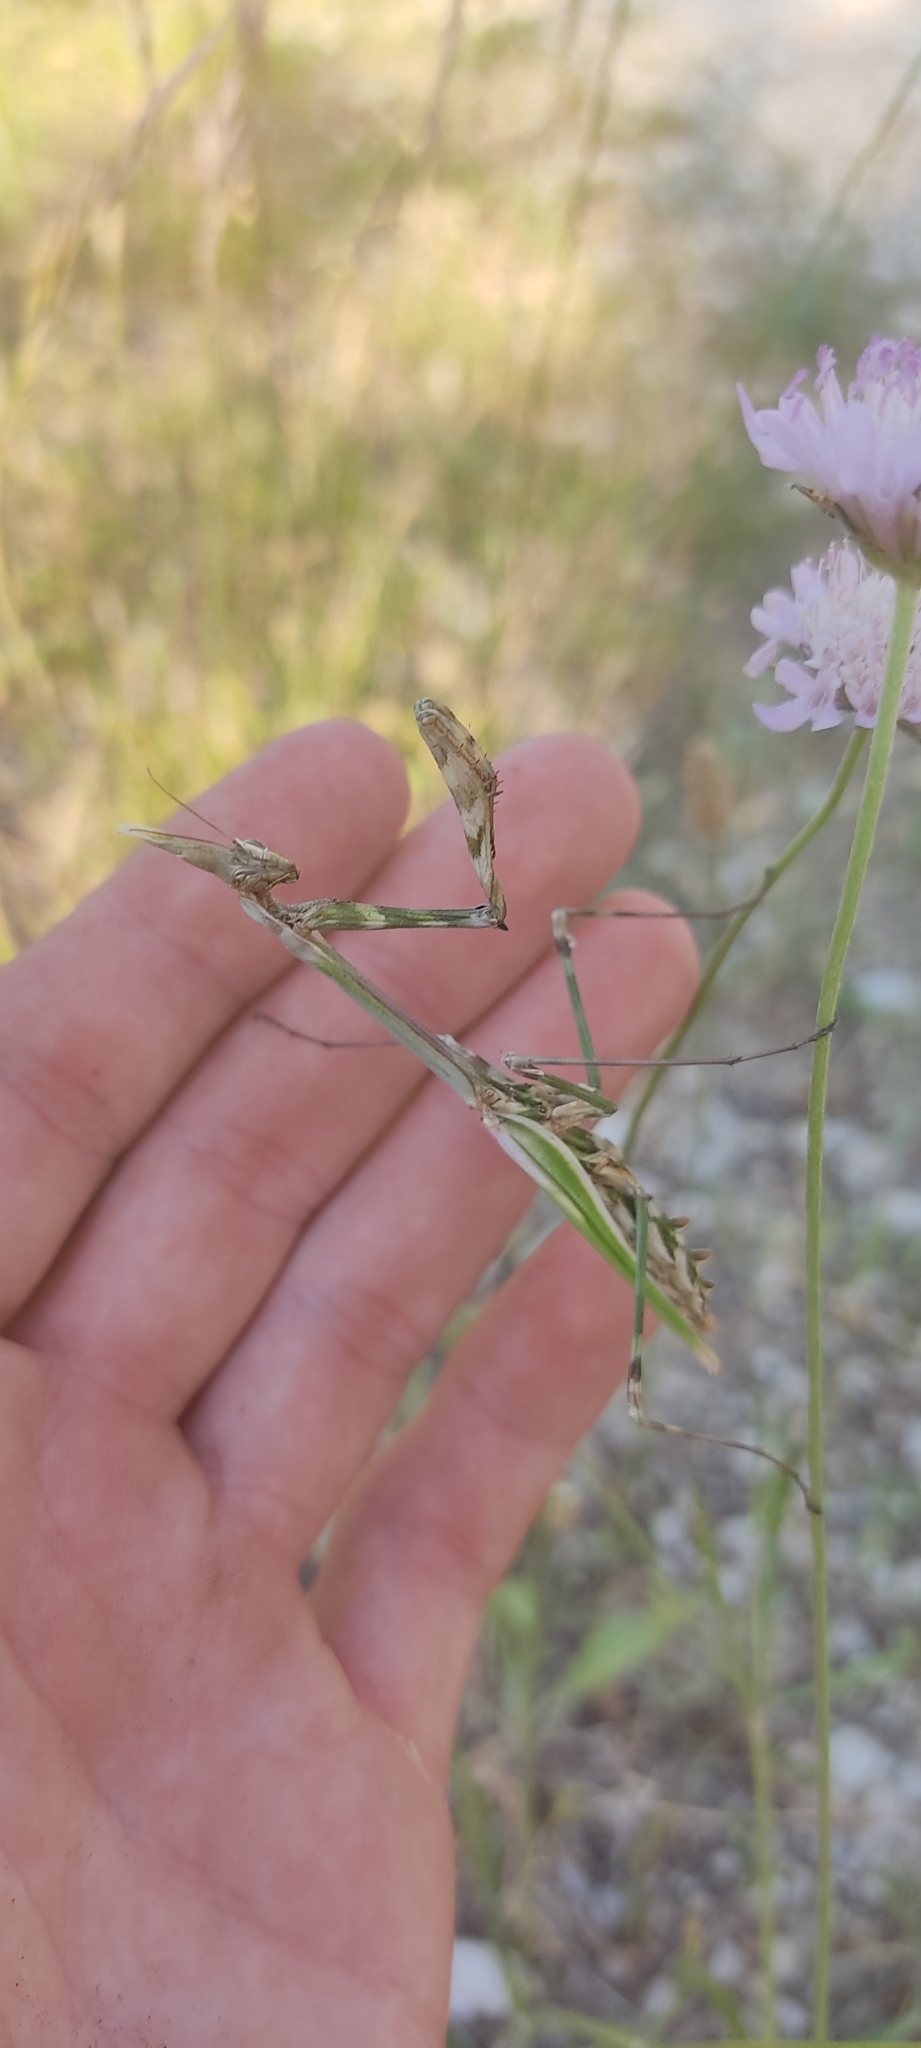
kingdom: Animalia
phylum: Arthropoda
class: Insecta
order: Mantodea
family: Empusidae
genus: Empusa
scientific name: Empusa pennata
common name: Conehead mantis
